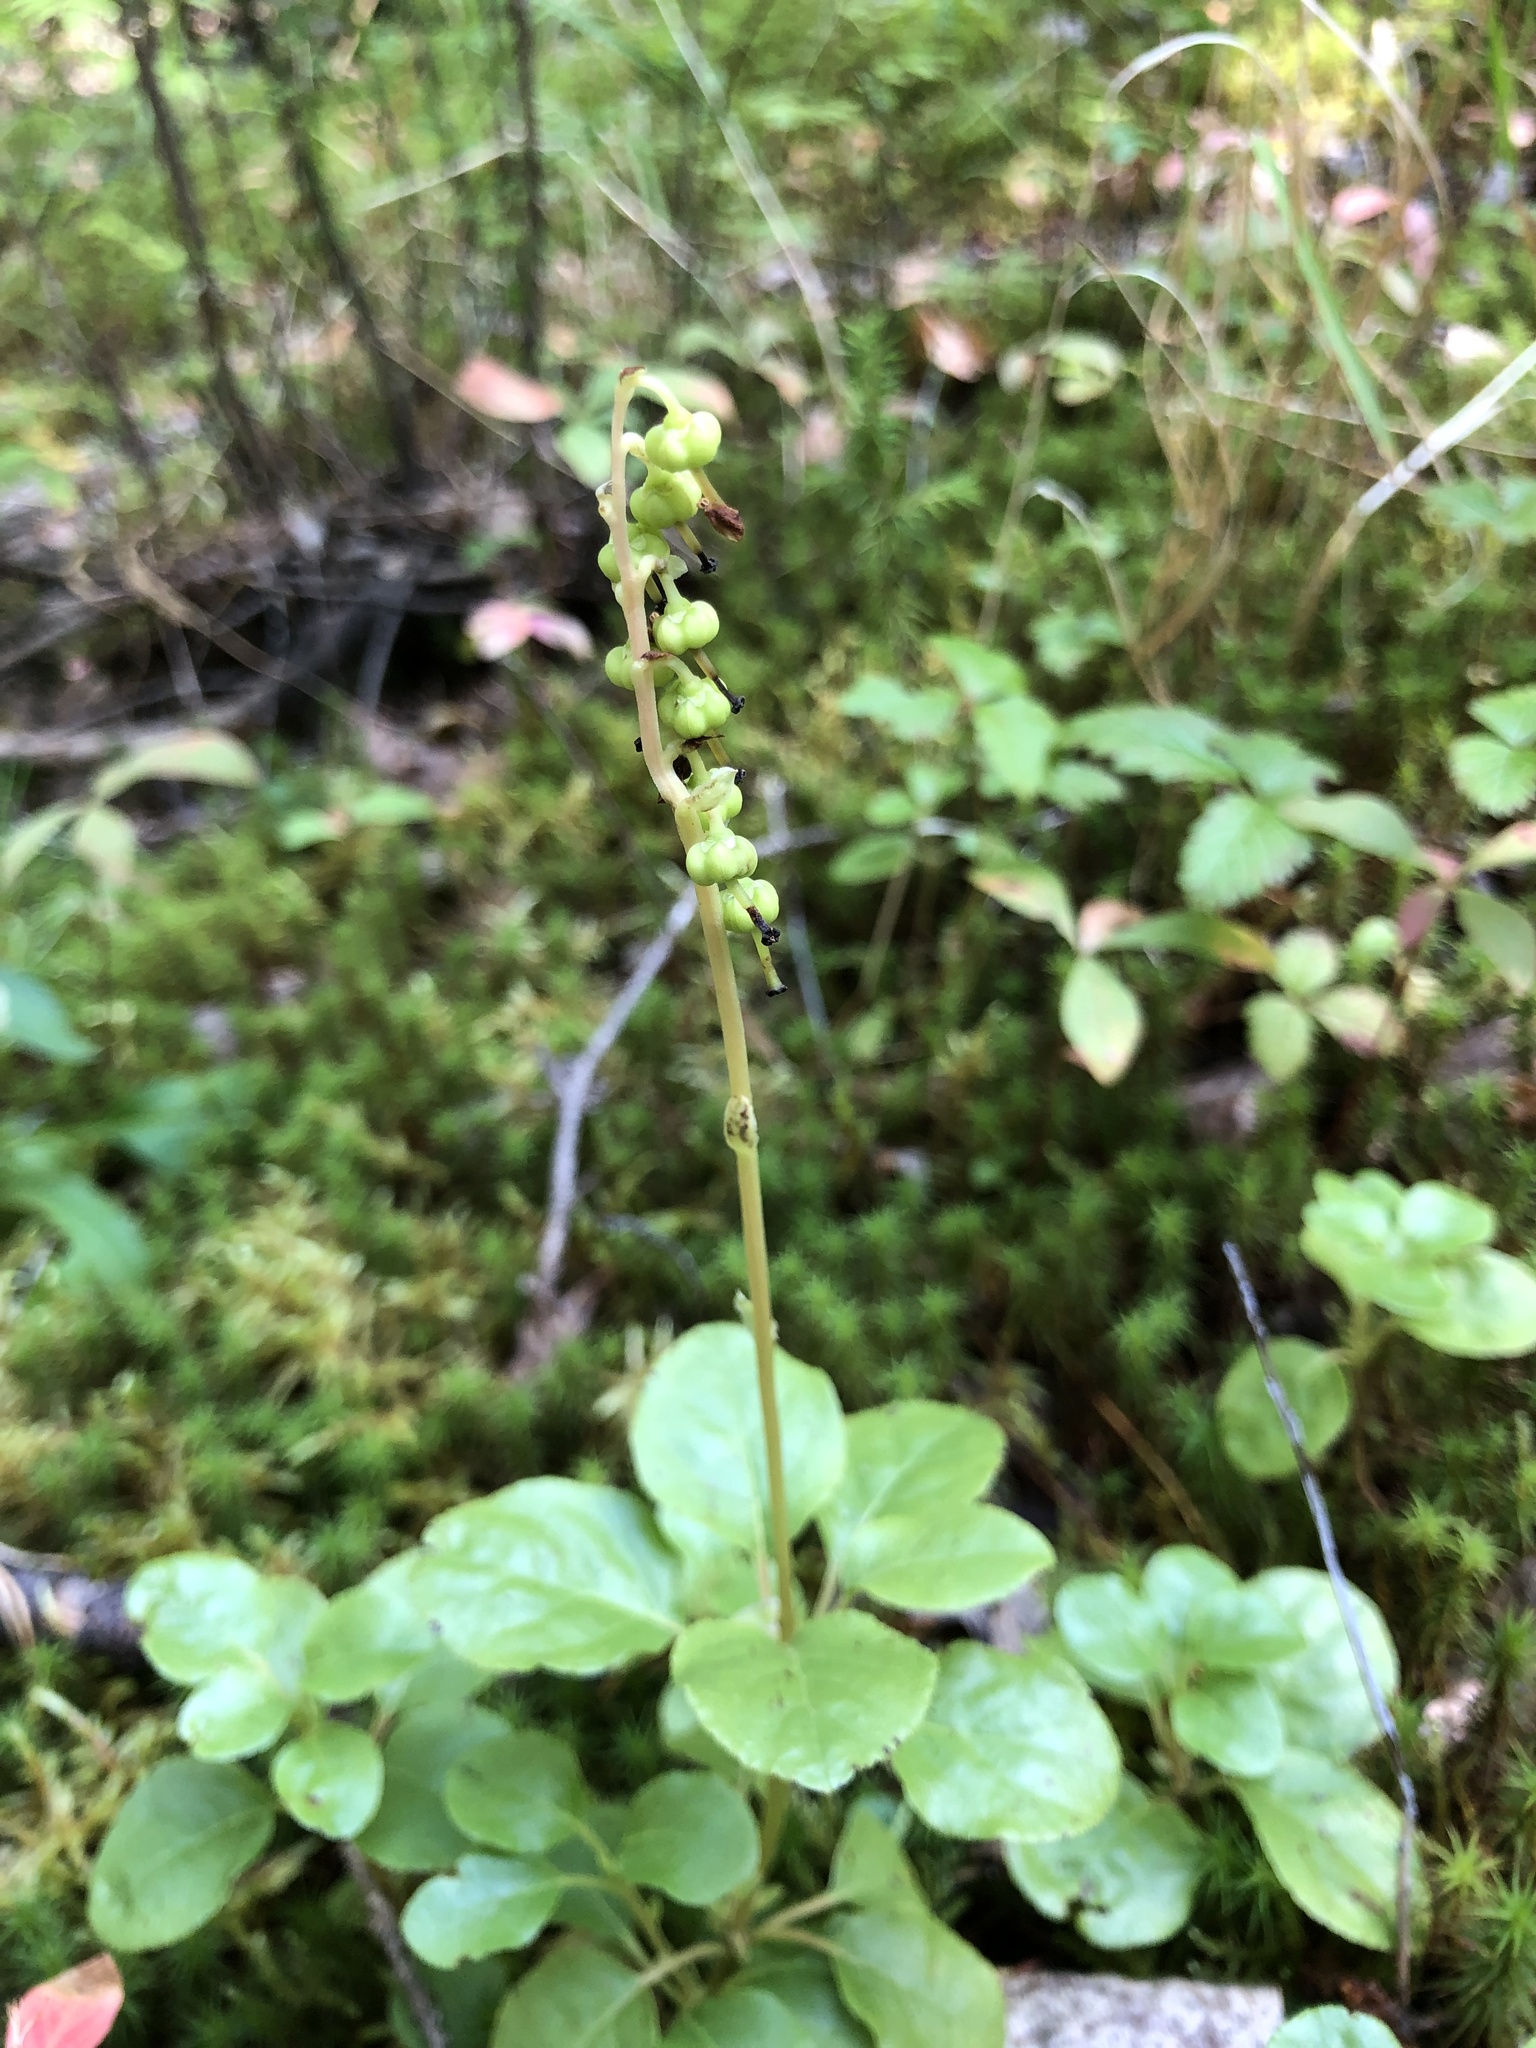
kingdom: Plantae
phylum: Tracheophyta
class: Magnoliopsida
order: Ericales
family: Ericaceae
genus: Orthilia
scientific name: Orthilia secunda
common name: One-sided orthilia
